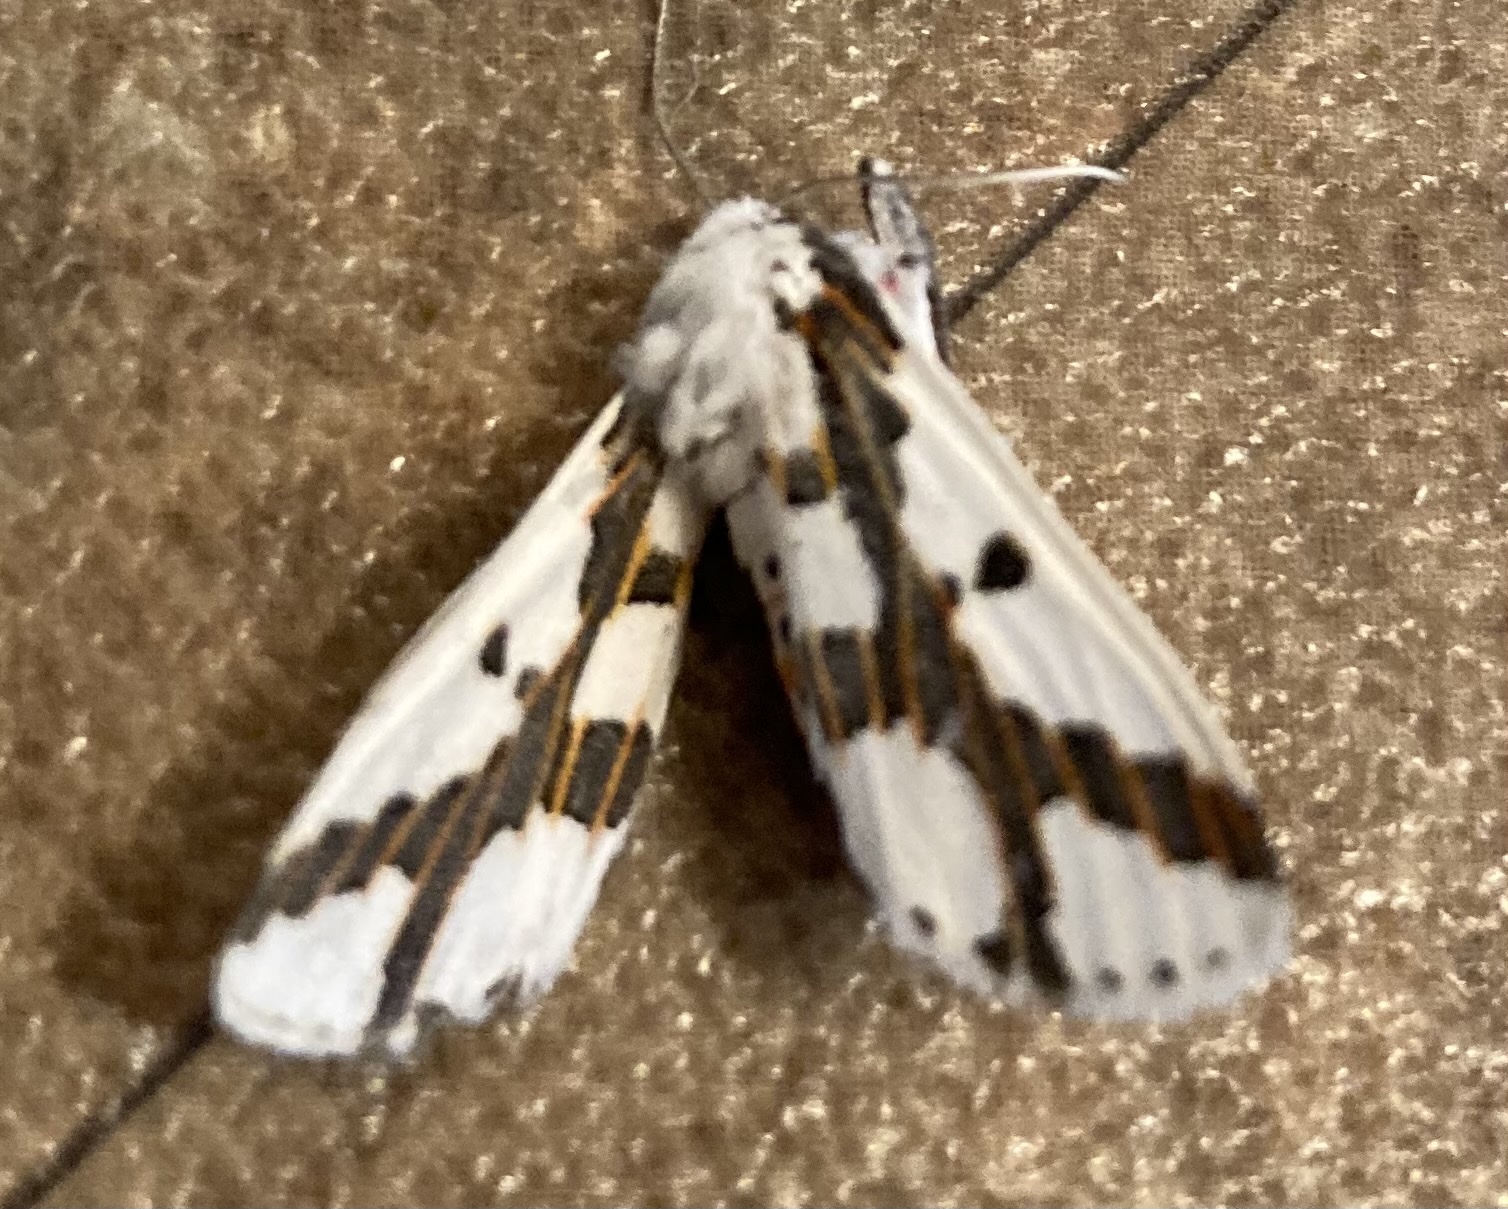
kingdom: Animalia
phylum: Arthropoda
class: Insecta
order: Lepidoptera
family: Erebidae
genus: Euerythra
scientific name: Euerythra phasma
